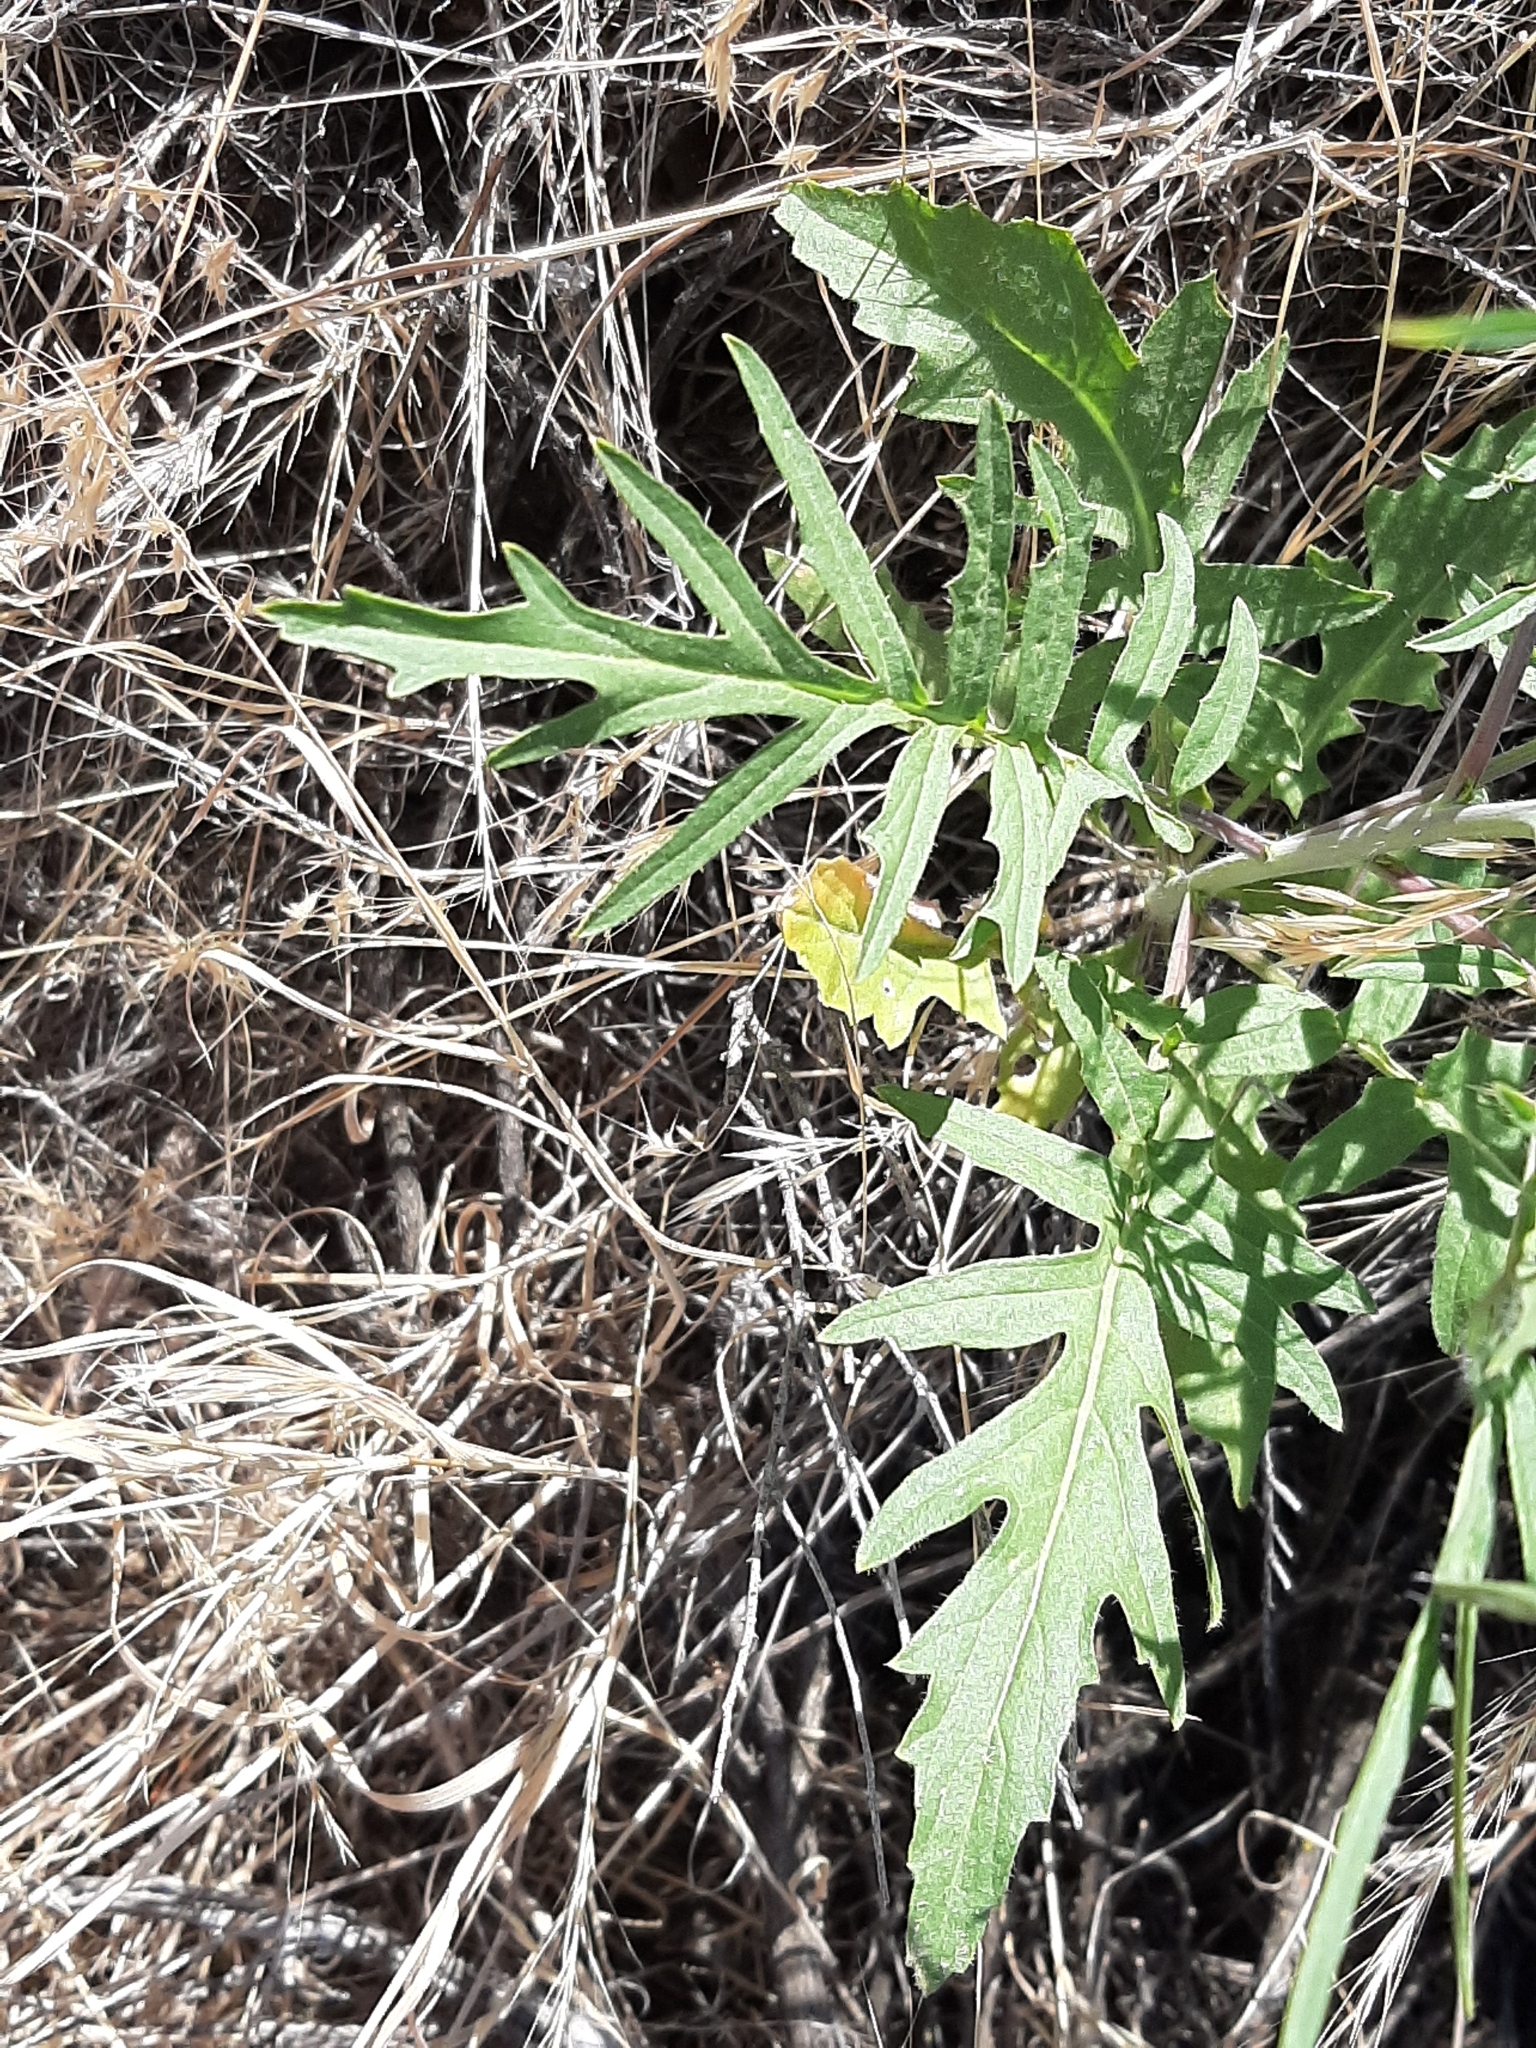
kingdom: Plantae
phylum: Tracheophyta
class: Magnoliopsida
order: Brassicales
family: Brassicaceae
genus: Sisymbrium
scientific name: Sisymbrium altissimum
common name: Tall rocket
